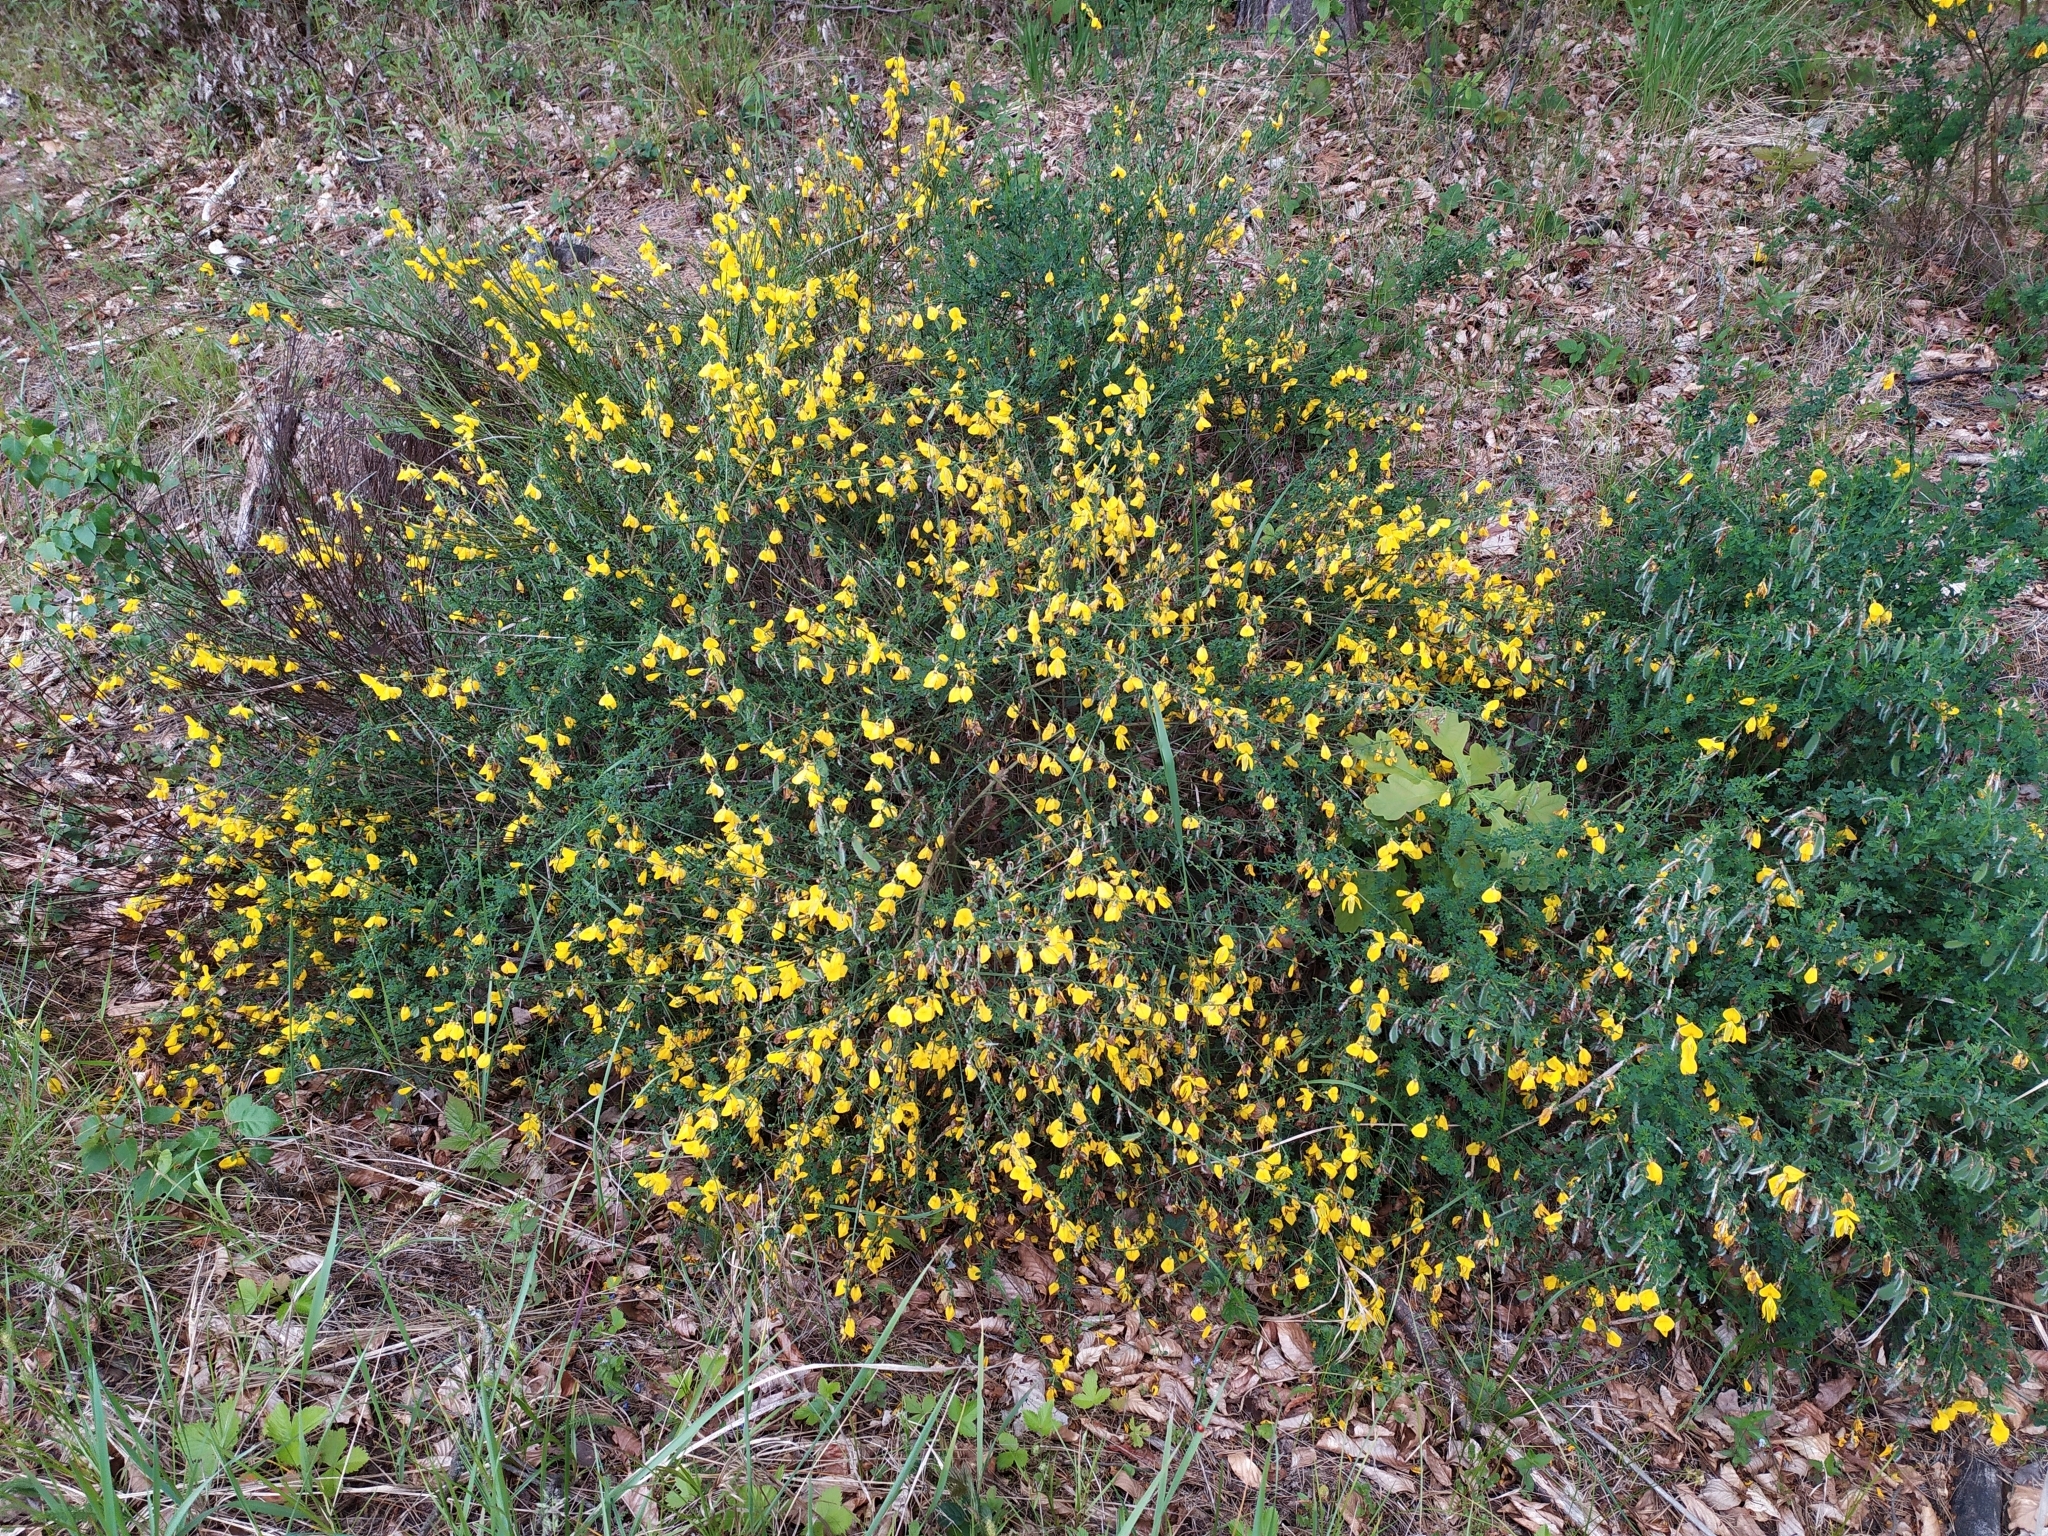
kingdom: Plantae
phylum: Tracheophyta
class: Magnoliopsida
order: Fabales
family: Fabaceae
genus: Cytisus
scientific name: Cytisus scoparius
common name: Scotch broom
